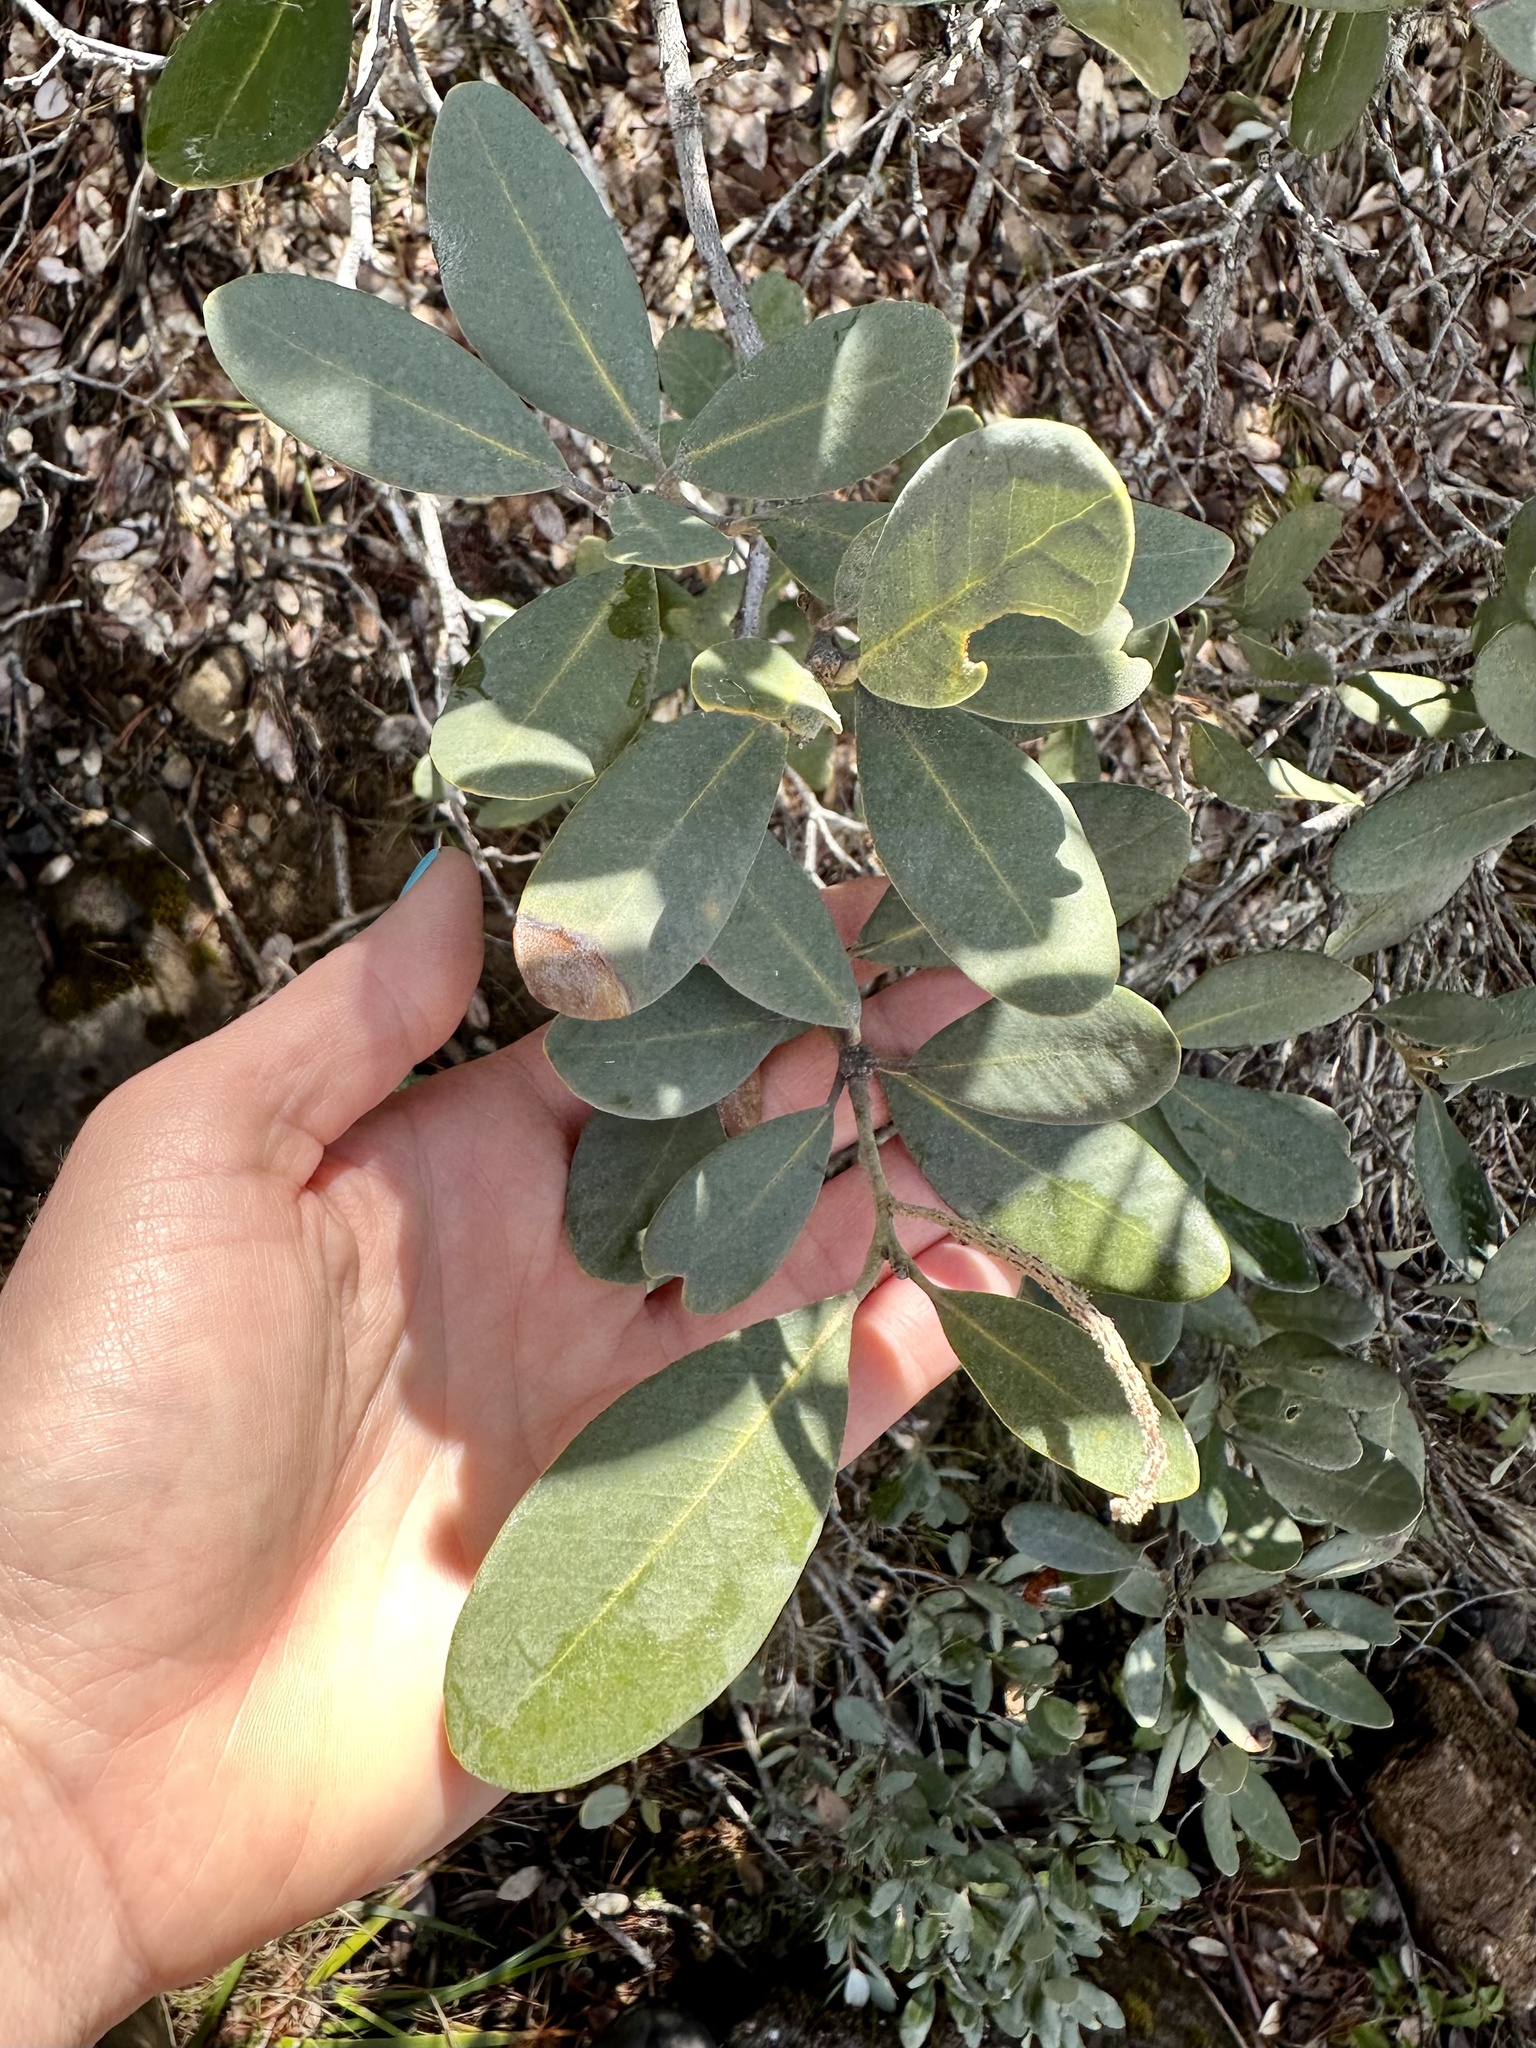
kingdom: Plantae
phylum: Tracheophyta
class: Magnoliopsida
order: Fagales
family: Fagaceae
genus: Quercus
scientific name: Quercus vacciniifolia
